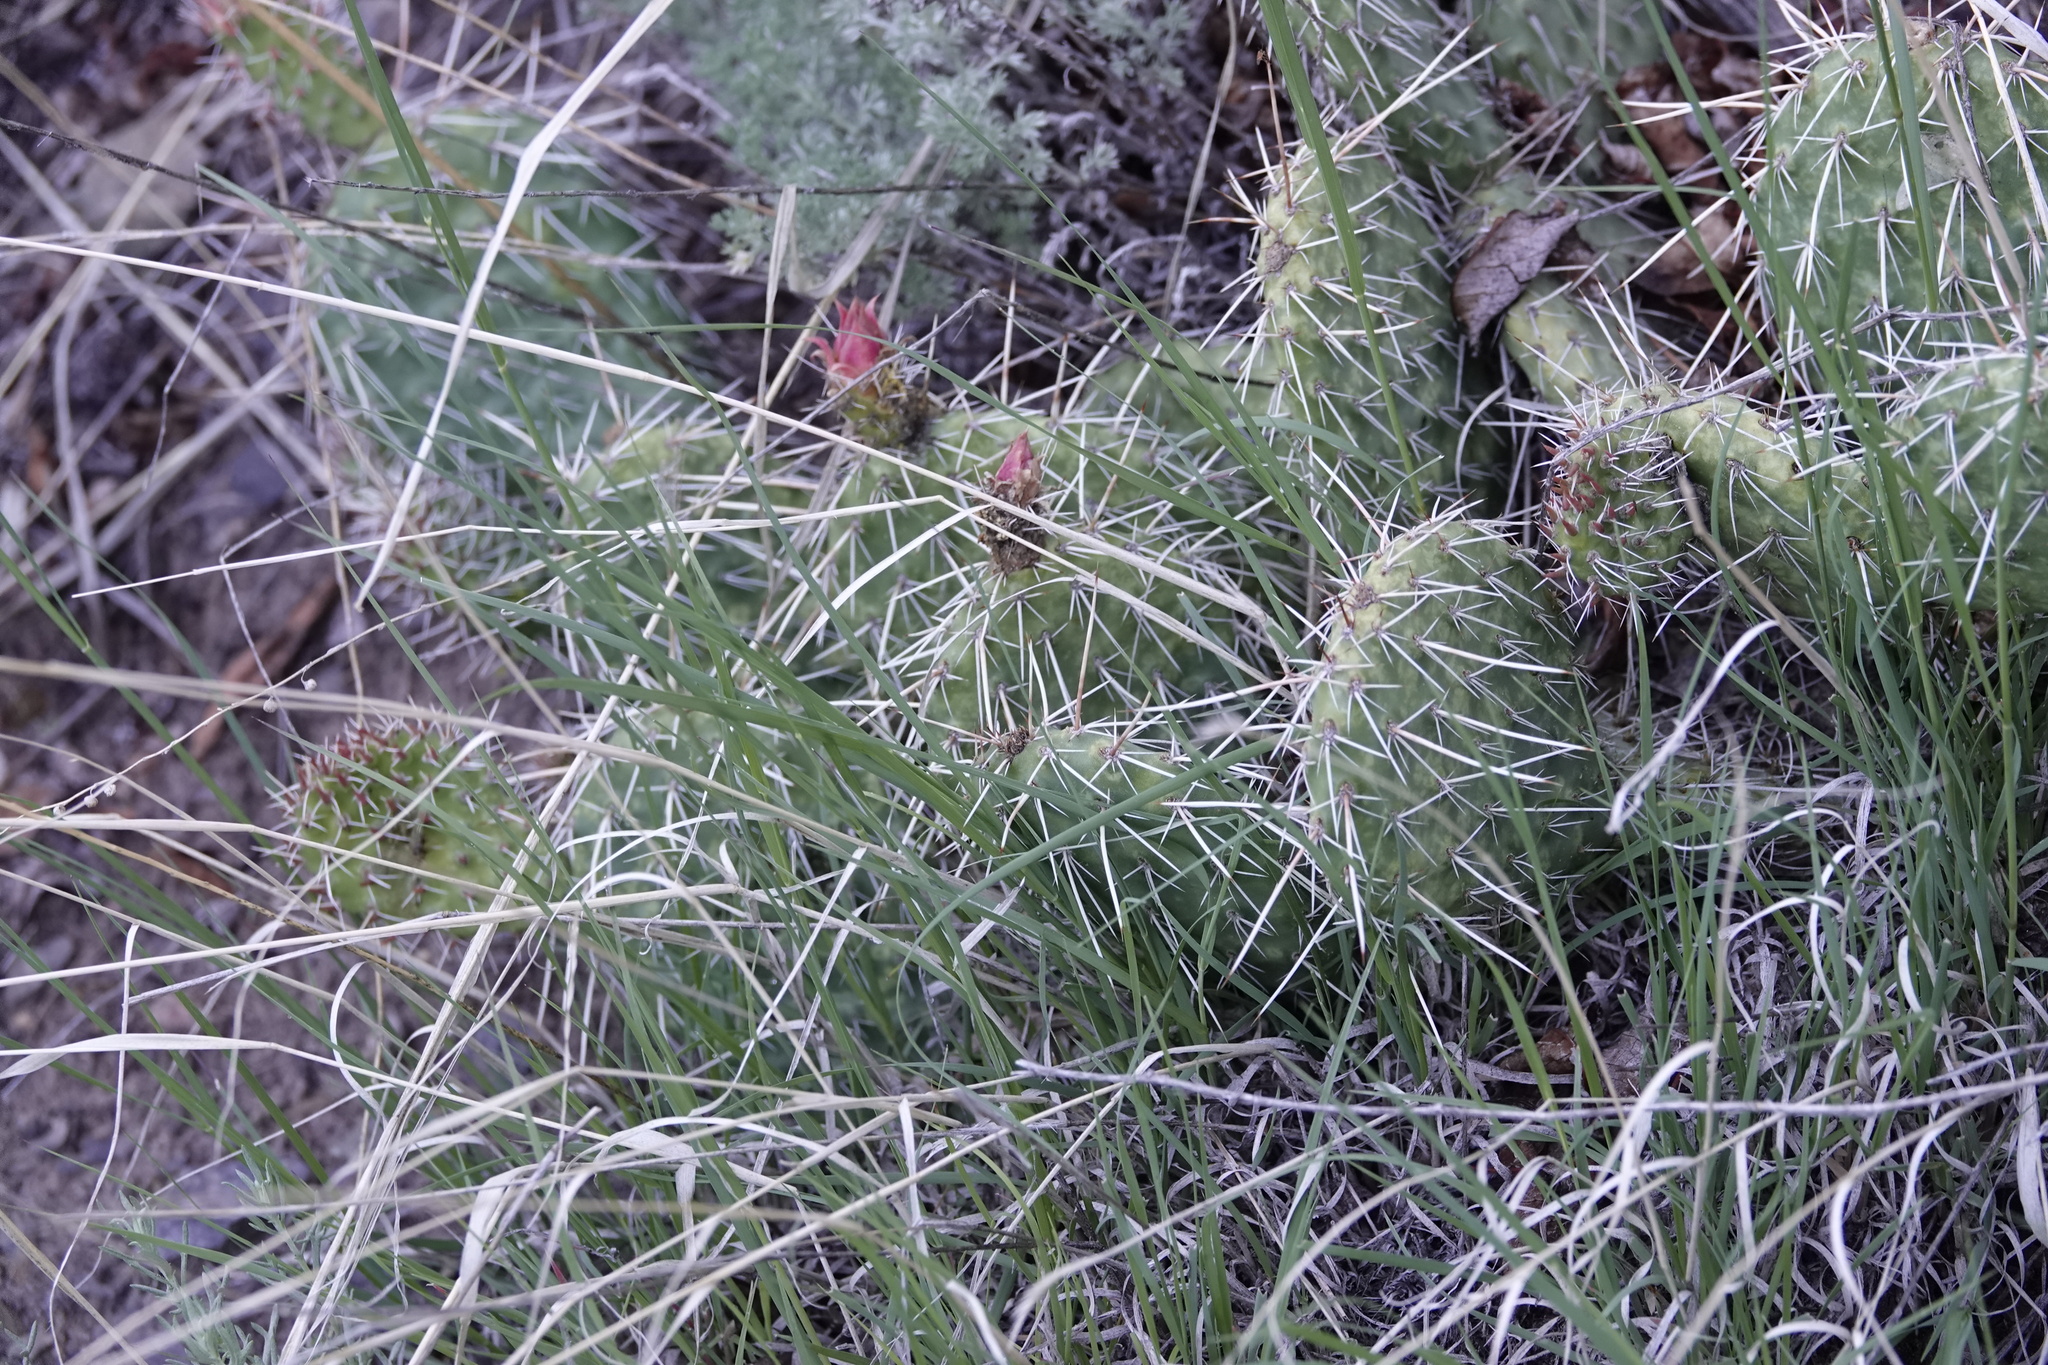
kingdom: Plantae
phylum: Tracheophyta
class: Magnoliopsida
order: Caryophyllales
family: Cactaceae
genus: Opuntia
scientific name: Opuntia polyacantha
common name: Plains prickly-pear
